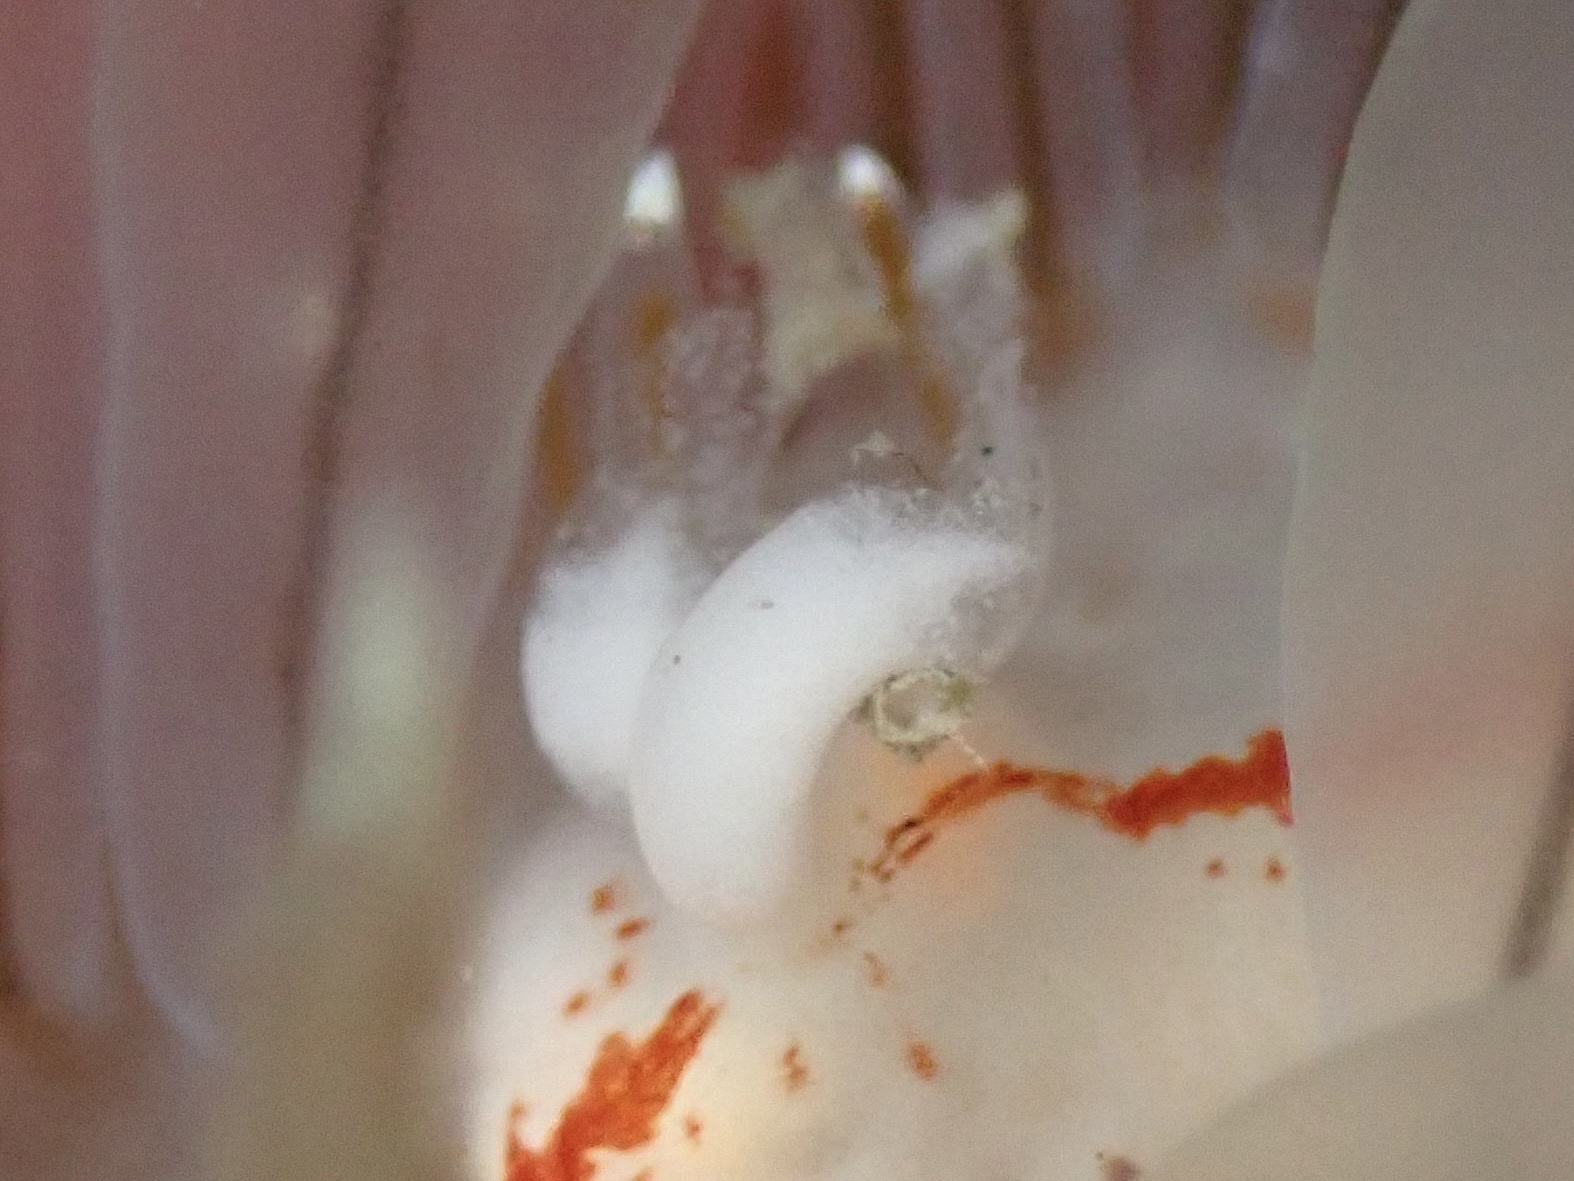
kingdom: Animalia
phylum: Arthropoda
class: Copepoda
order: Cyclopoida
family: Splanchnotrophidae
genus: Ismaila
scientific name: Ismaila belciki
